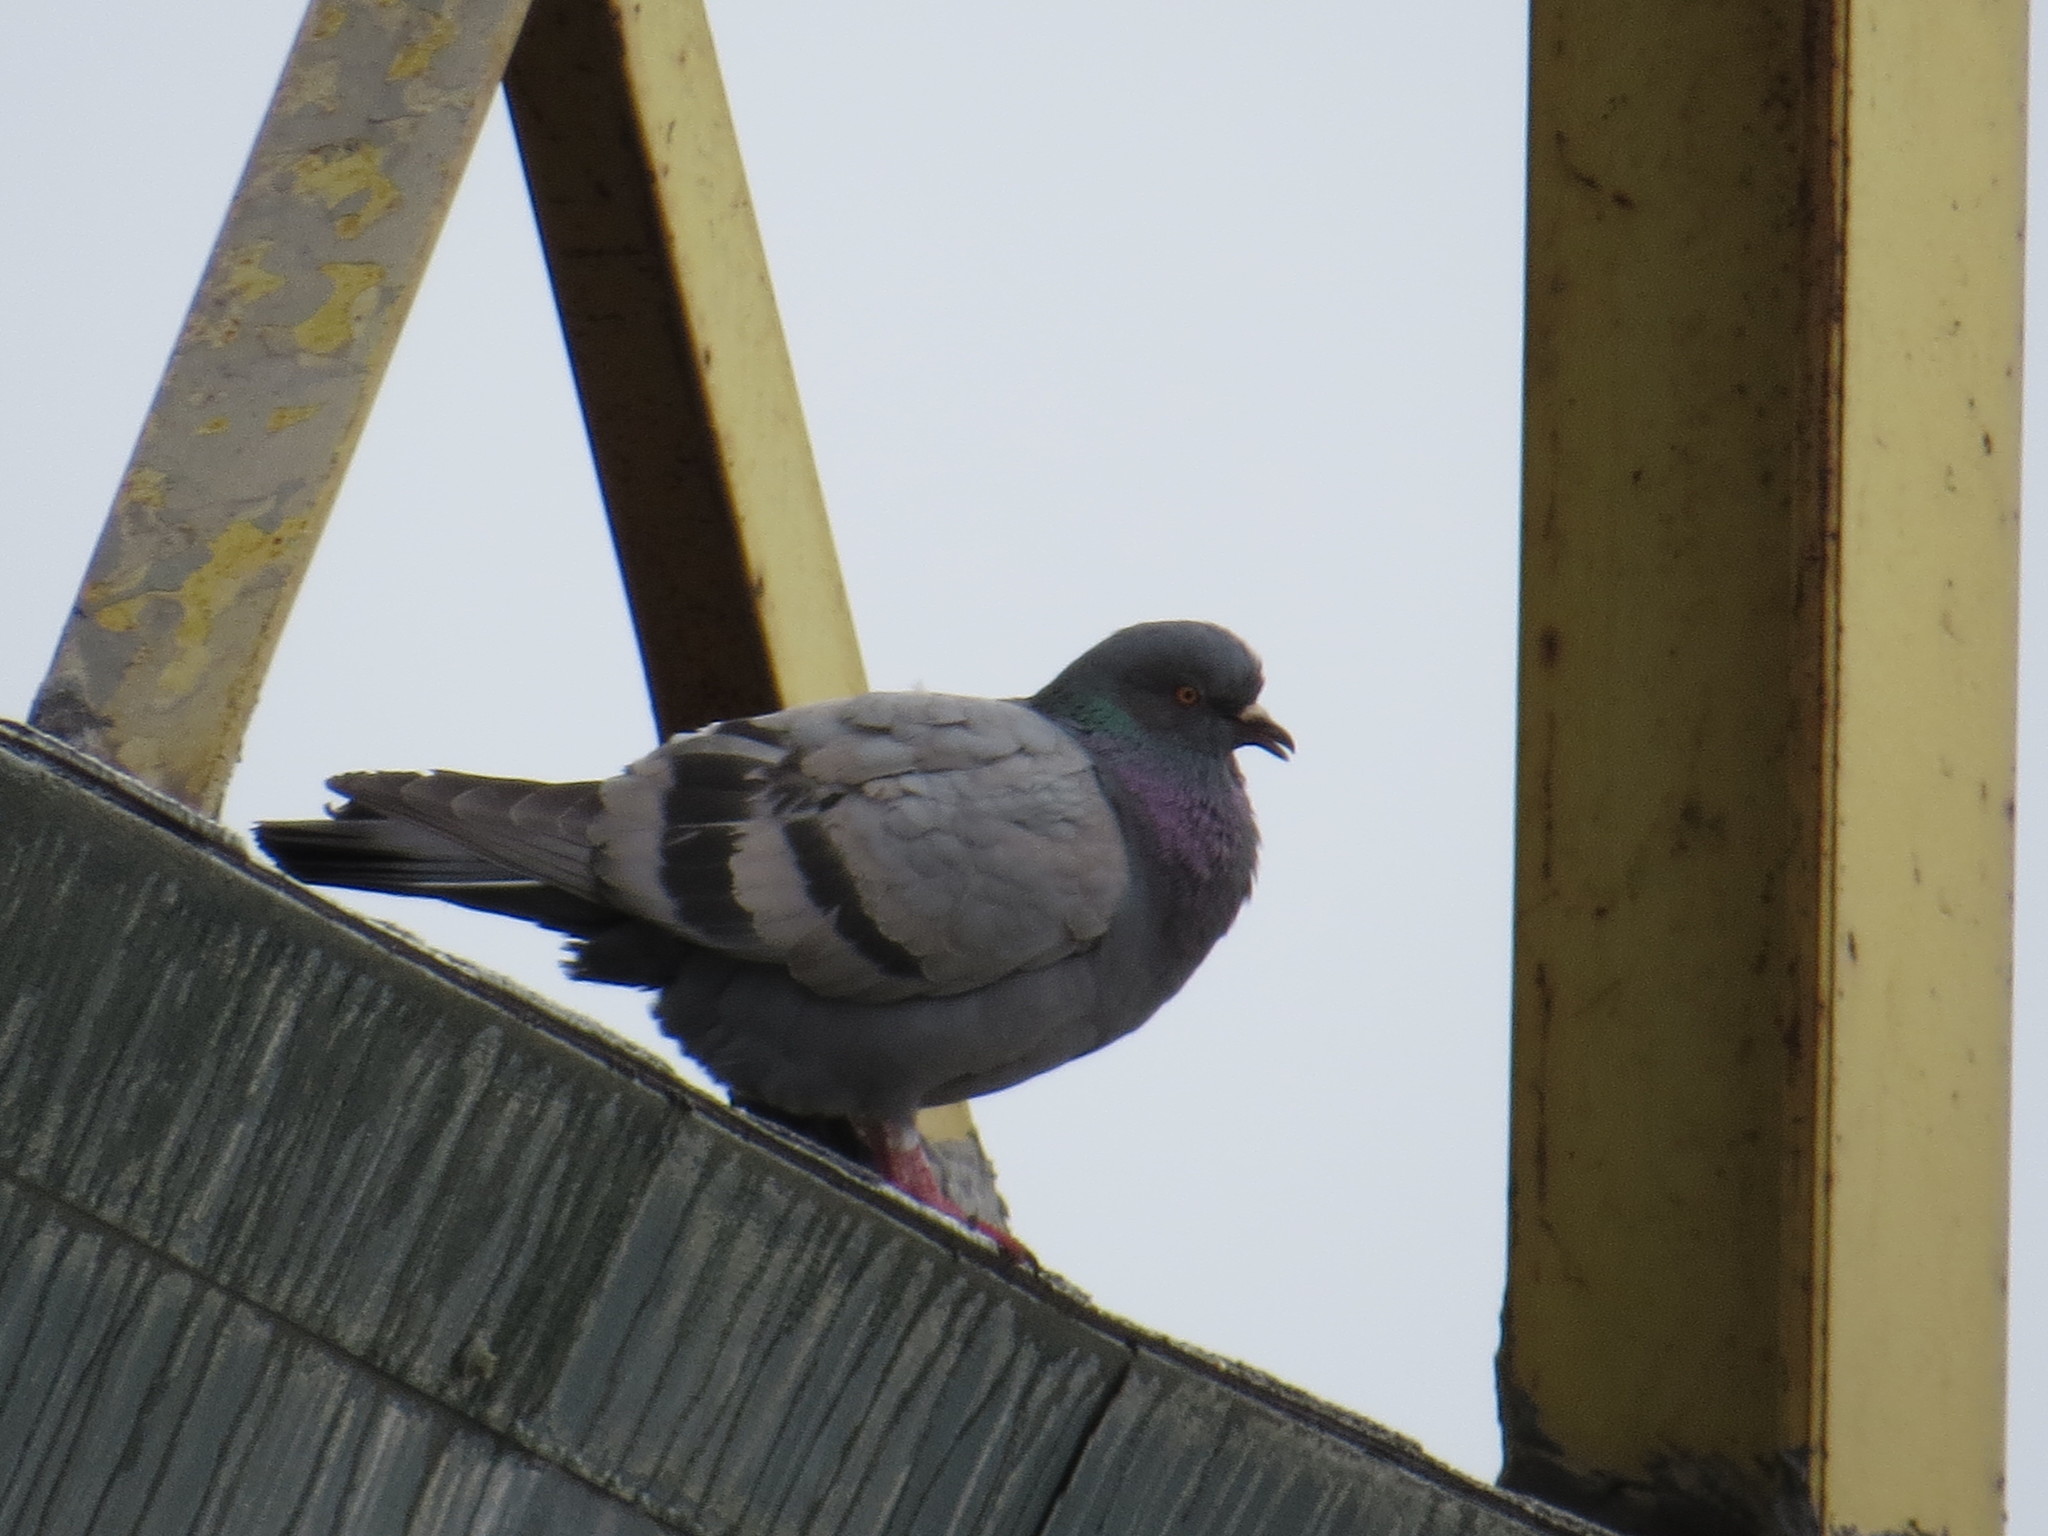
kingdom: Animalia
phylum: Chordata
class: Aves
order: Columbiformes
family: Columbidae
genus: Columba
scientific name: Columba livia
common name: Rock pigeon
